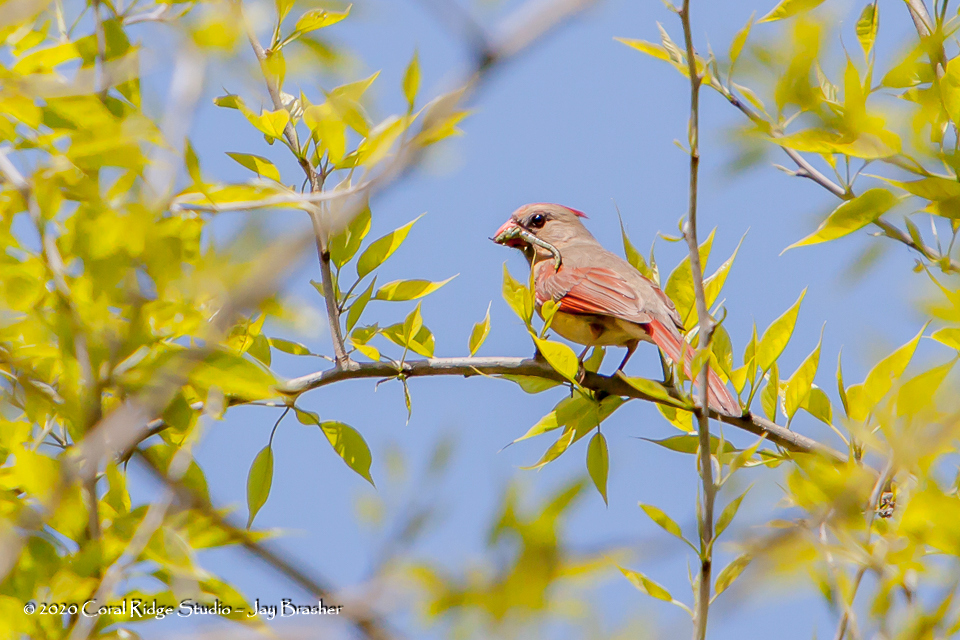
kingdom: Animalia
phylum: Chordata
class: Aves
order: Passeriformes
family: Cardinalidae
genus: Cardinalis
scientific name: Cardinalis cardinalis
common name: Northern cardinal
